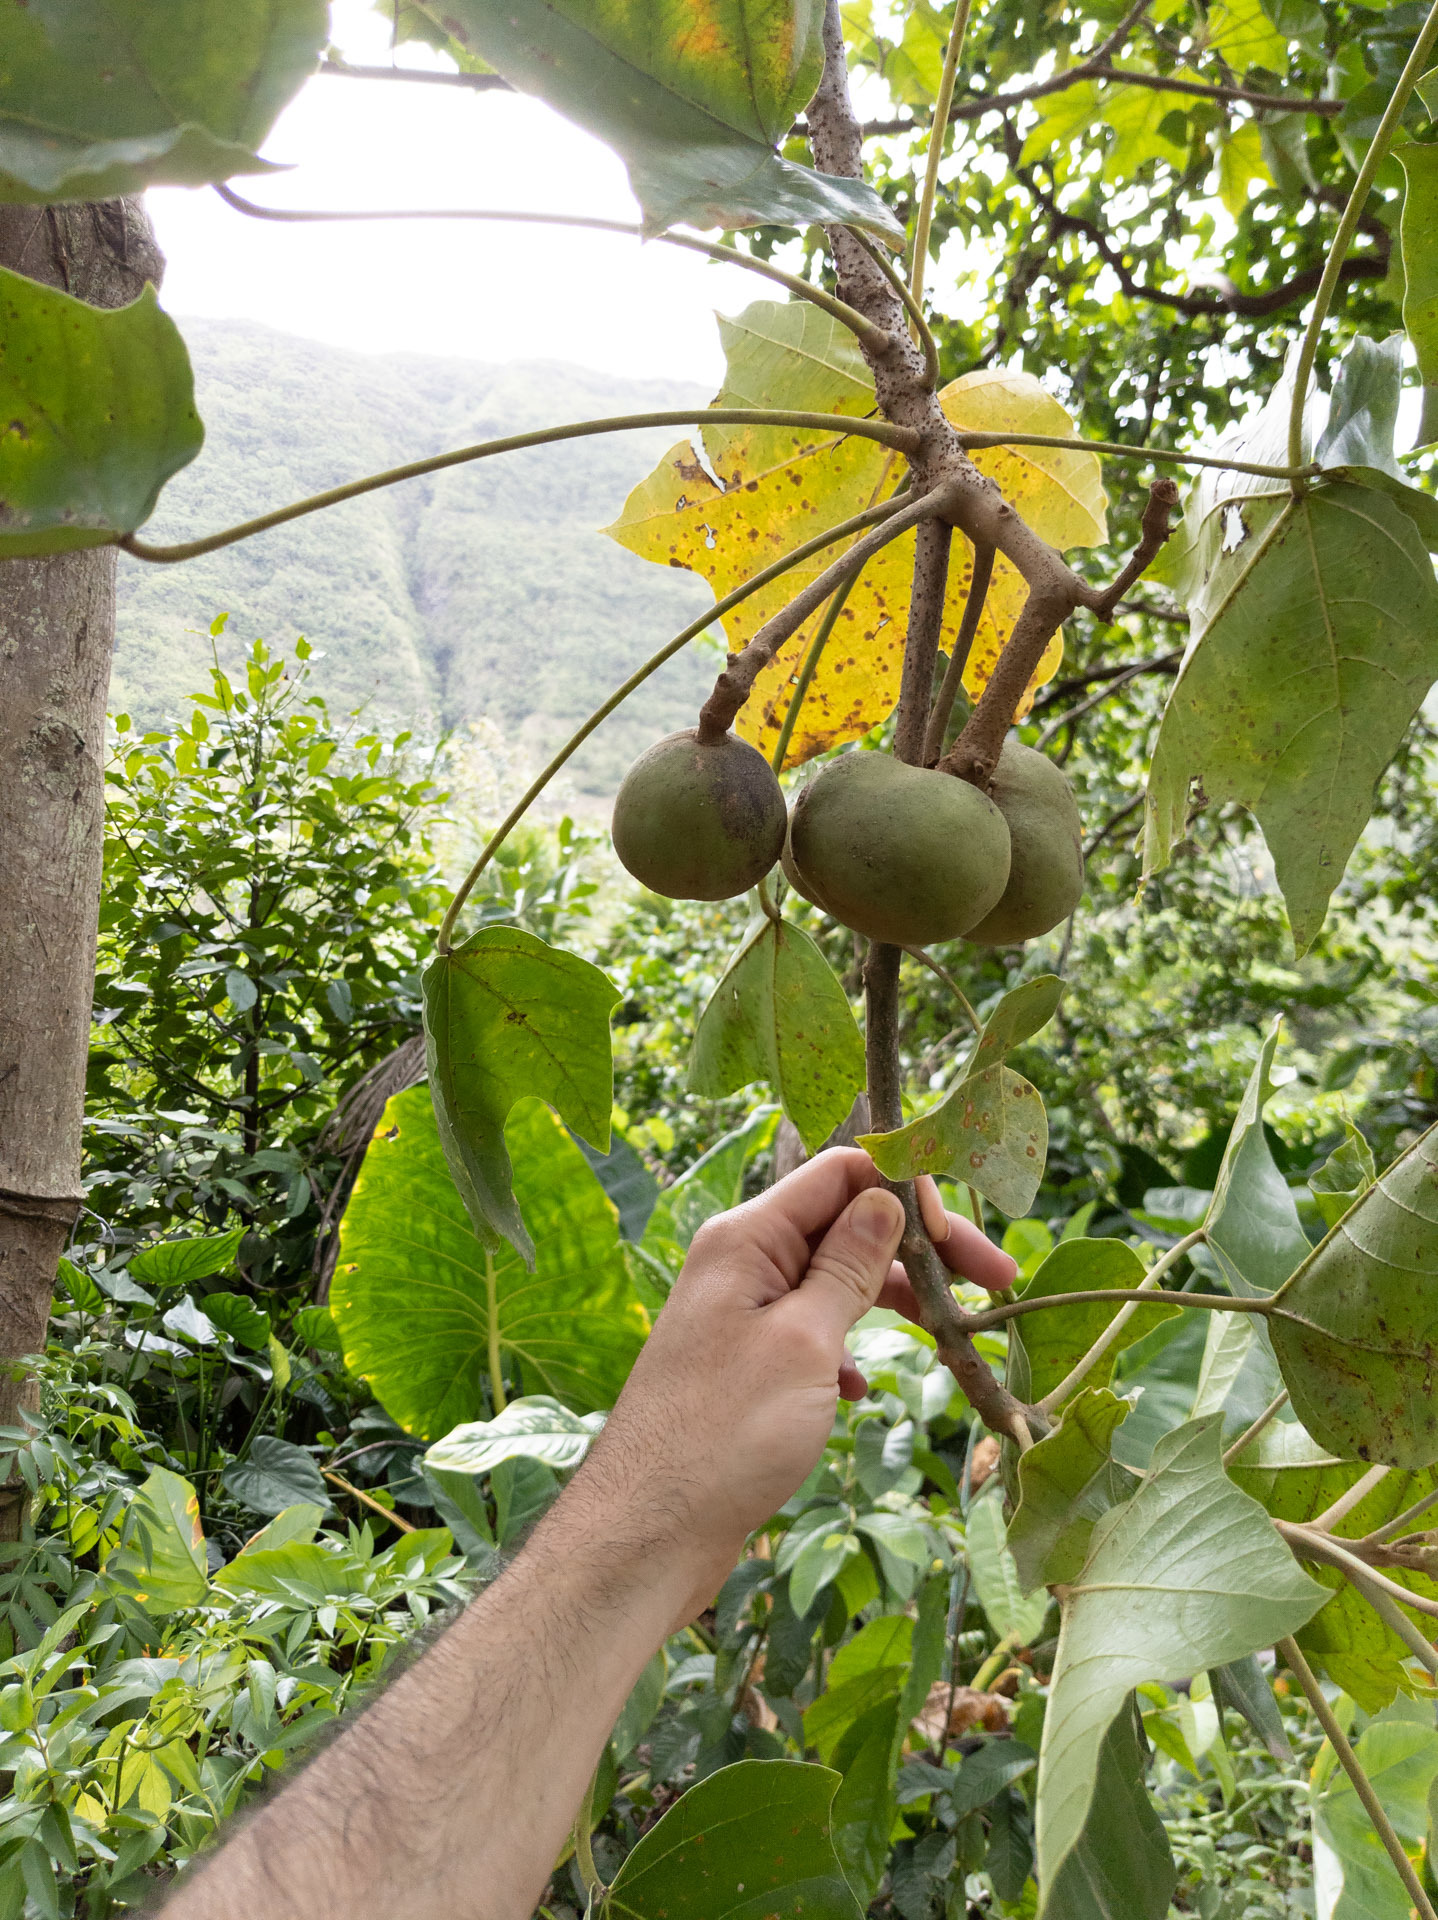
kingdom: Plantae
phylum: Tracheophyta
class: Magnoliopsida
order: Malpighiales
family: Euphorbiaceae
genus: Aleurites
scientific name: Aleurites moluccanus
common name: Candlenut tree
